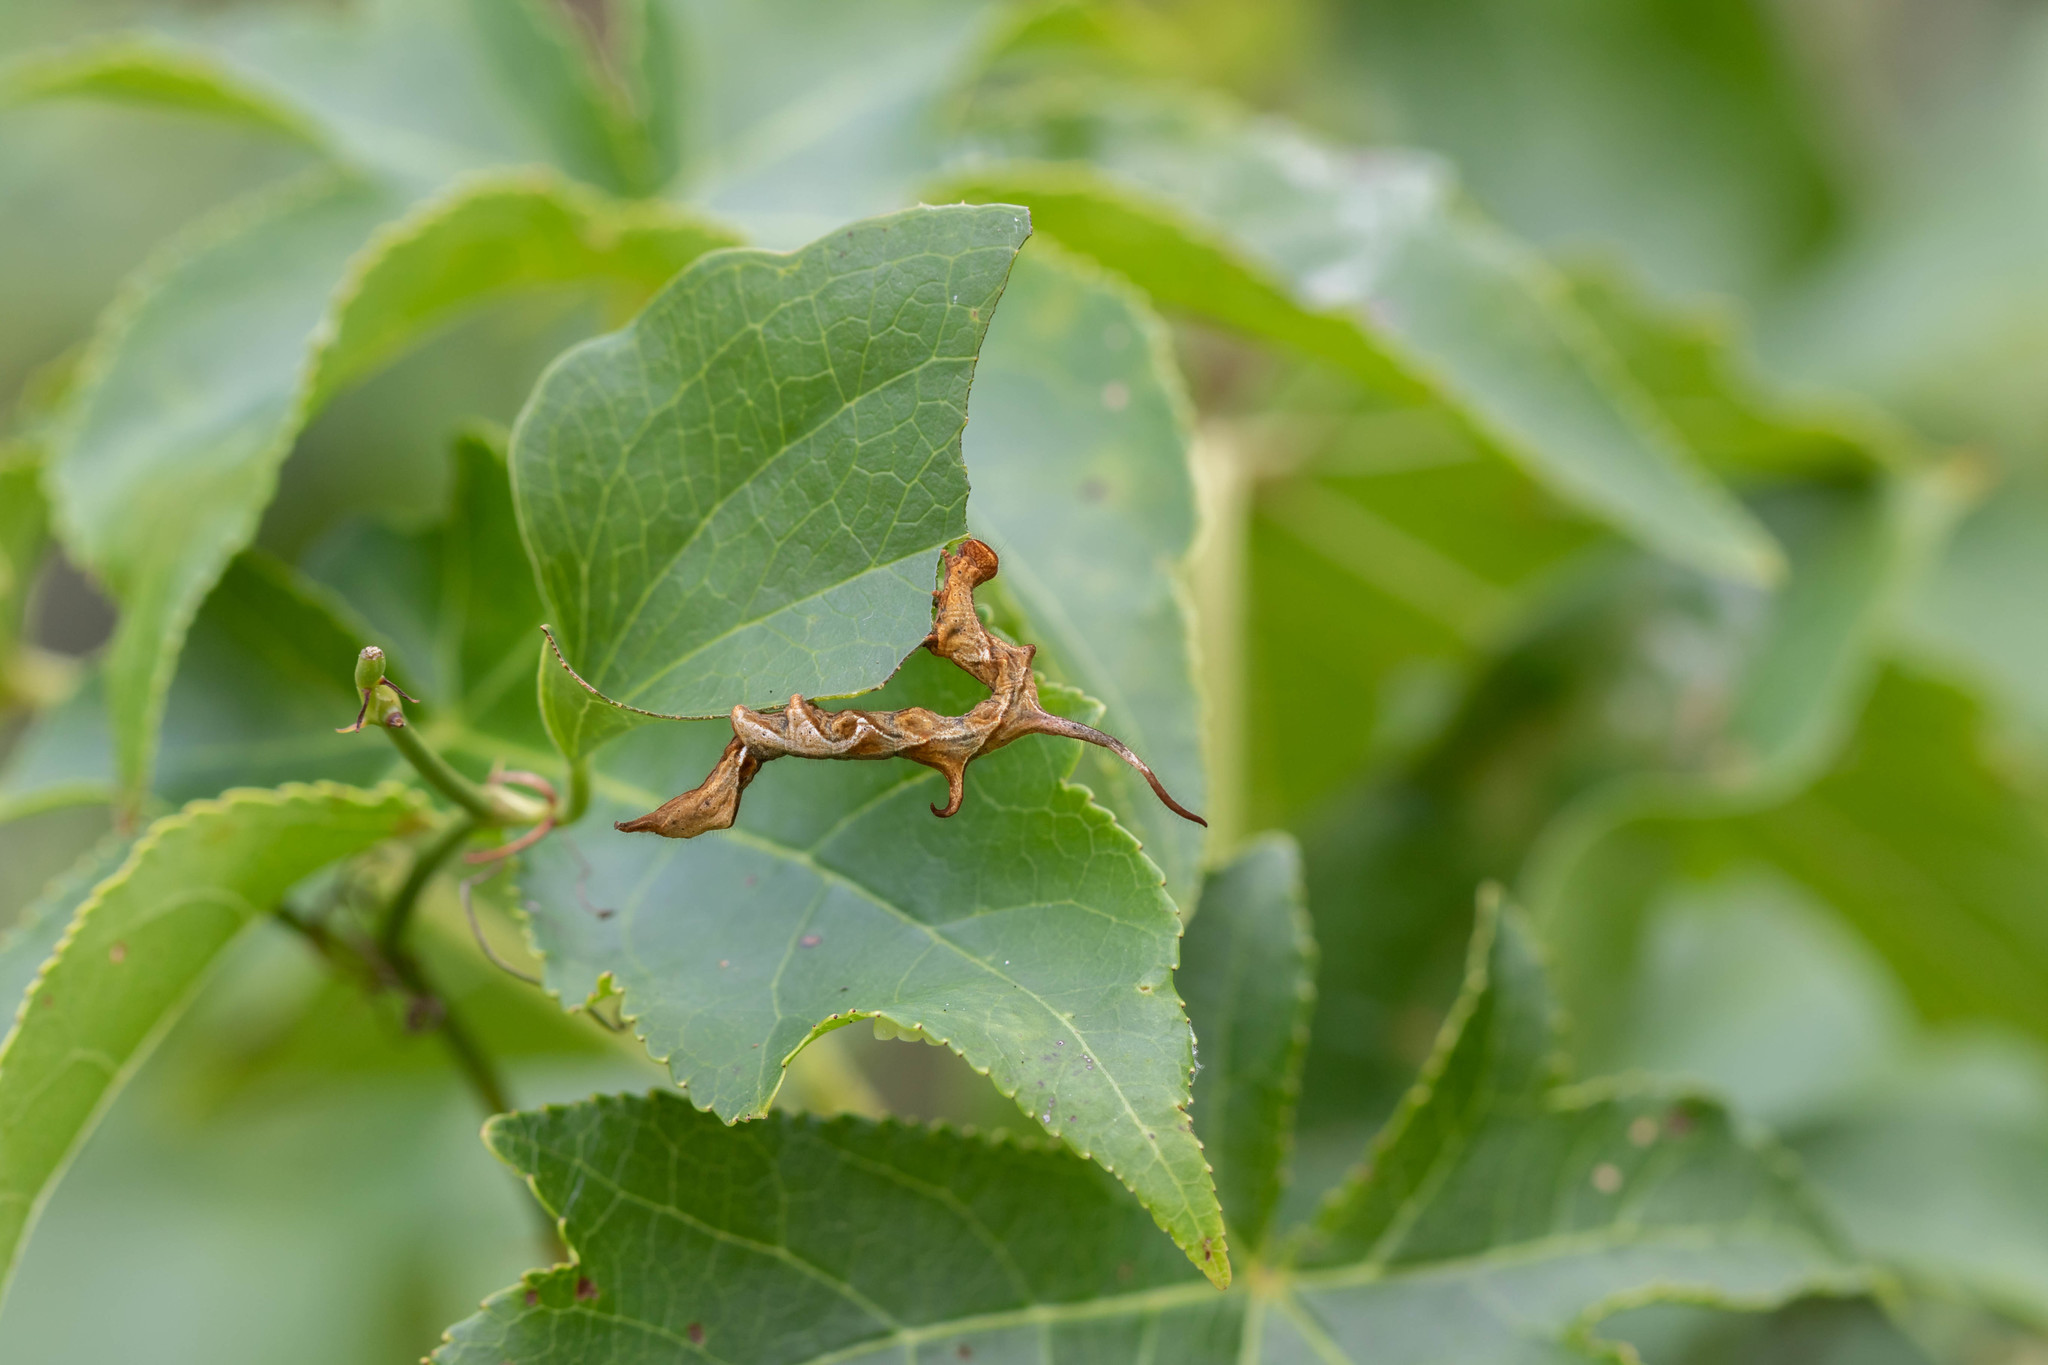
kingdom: Animalia
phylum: Arthropoda
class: Insecta
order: Lepidoptera
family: Erebidae
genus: Phyprosopus
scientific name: Phyprosopus callitrichoides
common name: Curved-lined owlet
